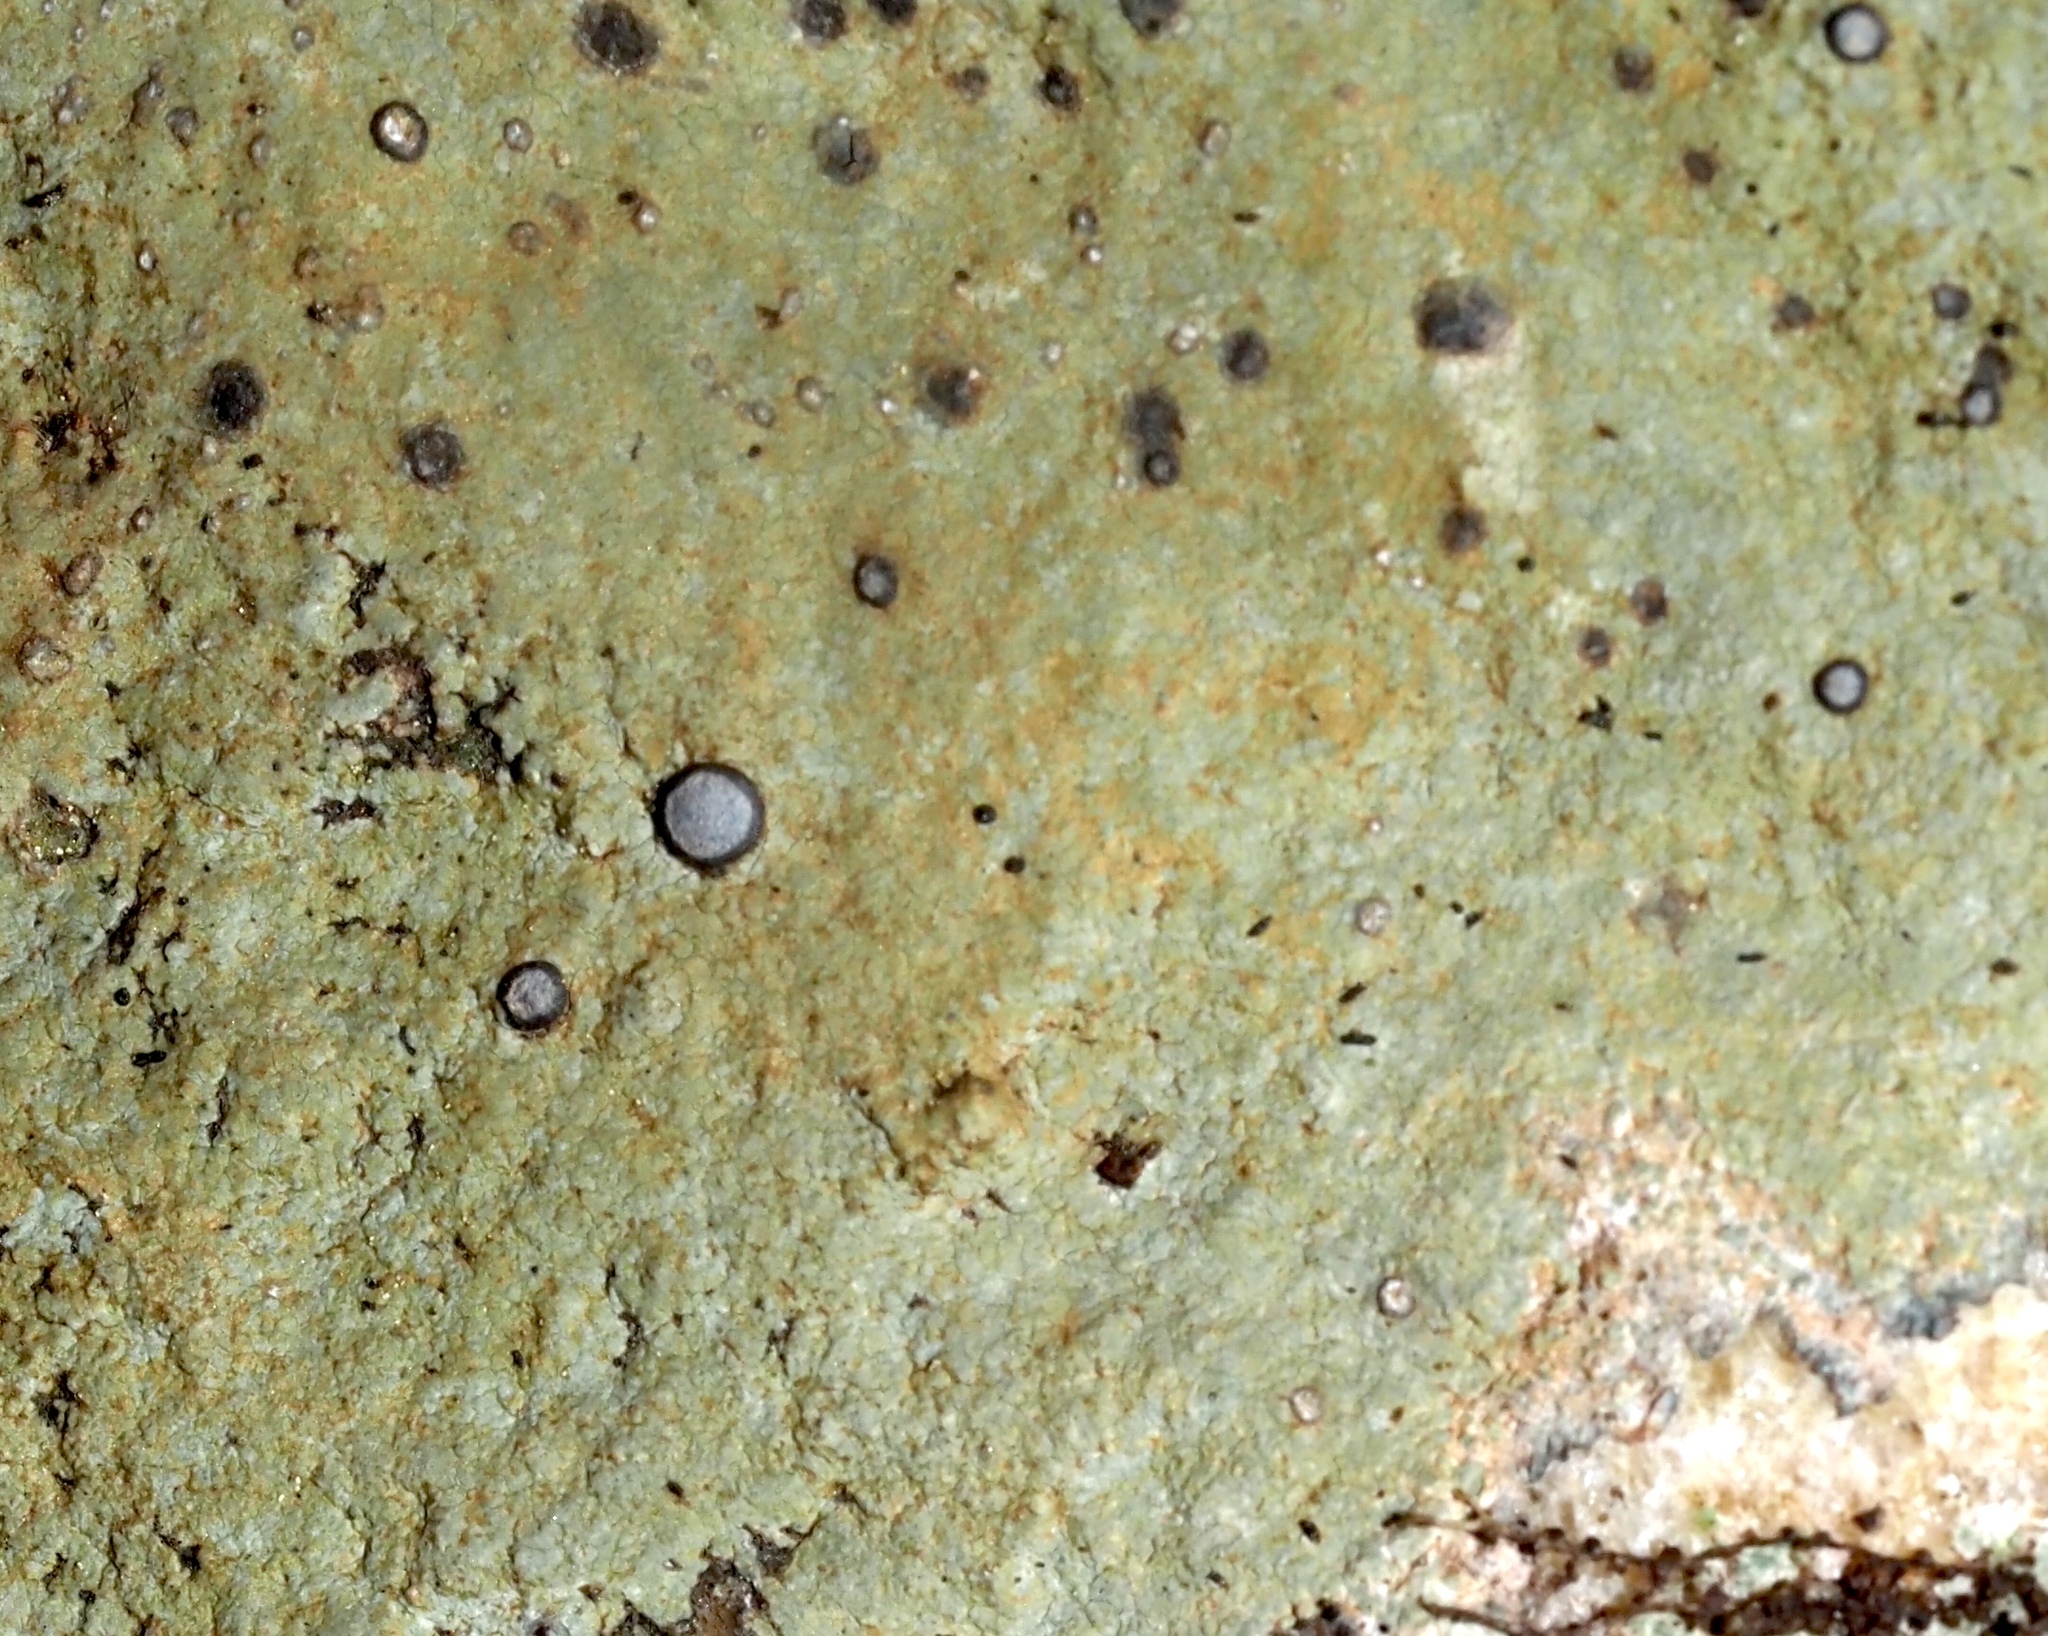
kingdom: Fungi
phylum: Ascomycota
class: Lecanoromycetes
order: Lecideales
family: Lecideaceae
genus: Porpidia
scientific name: Porpidia albocaerulescens
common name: Smokey-eyed boulder lichen
